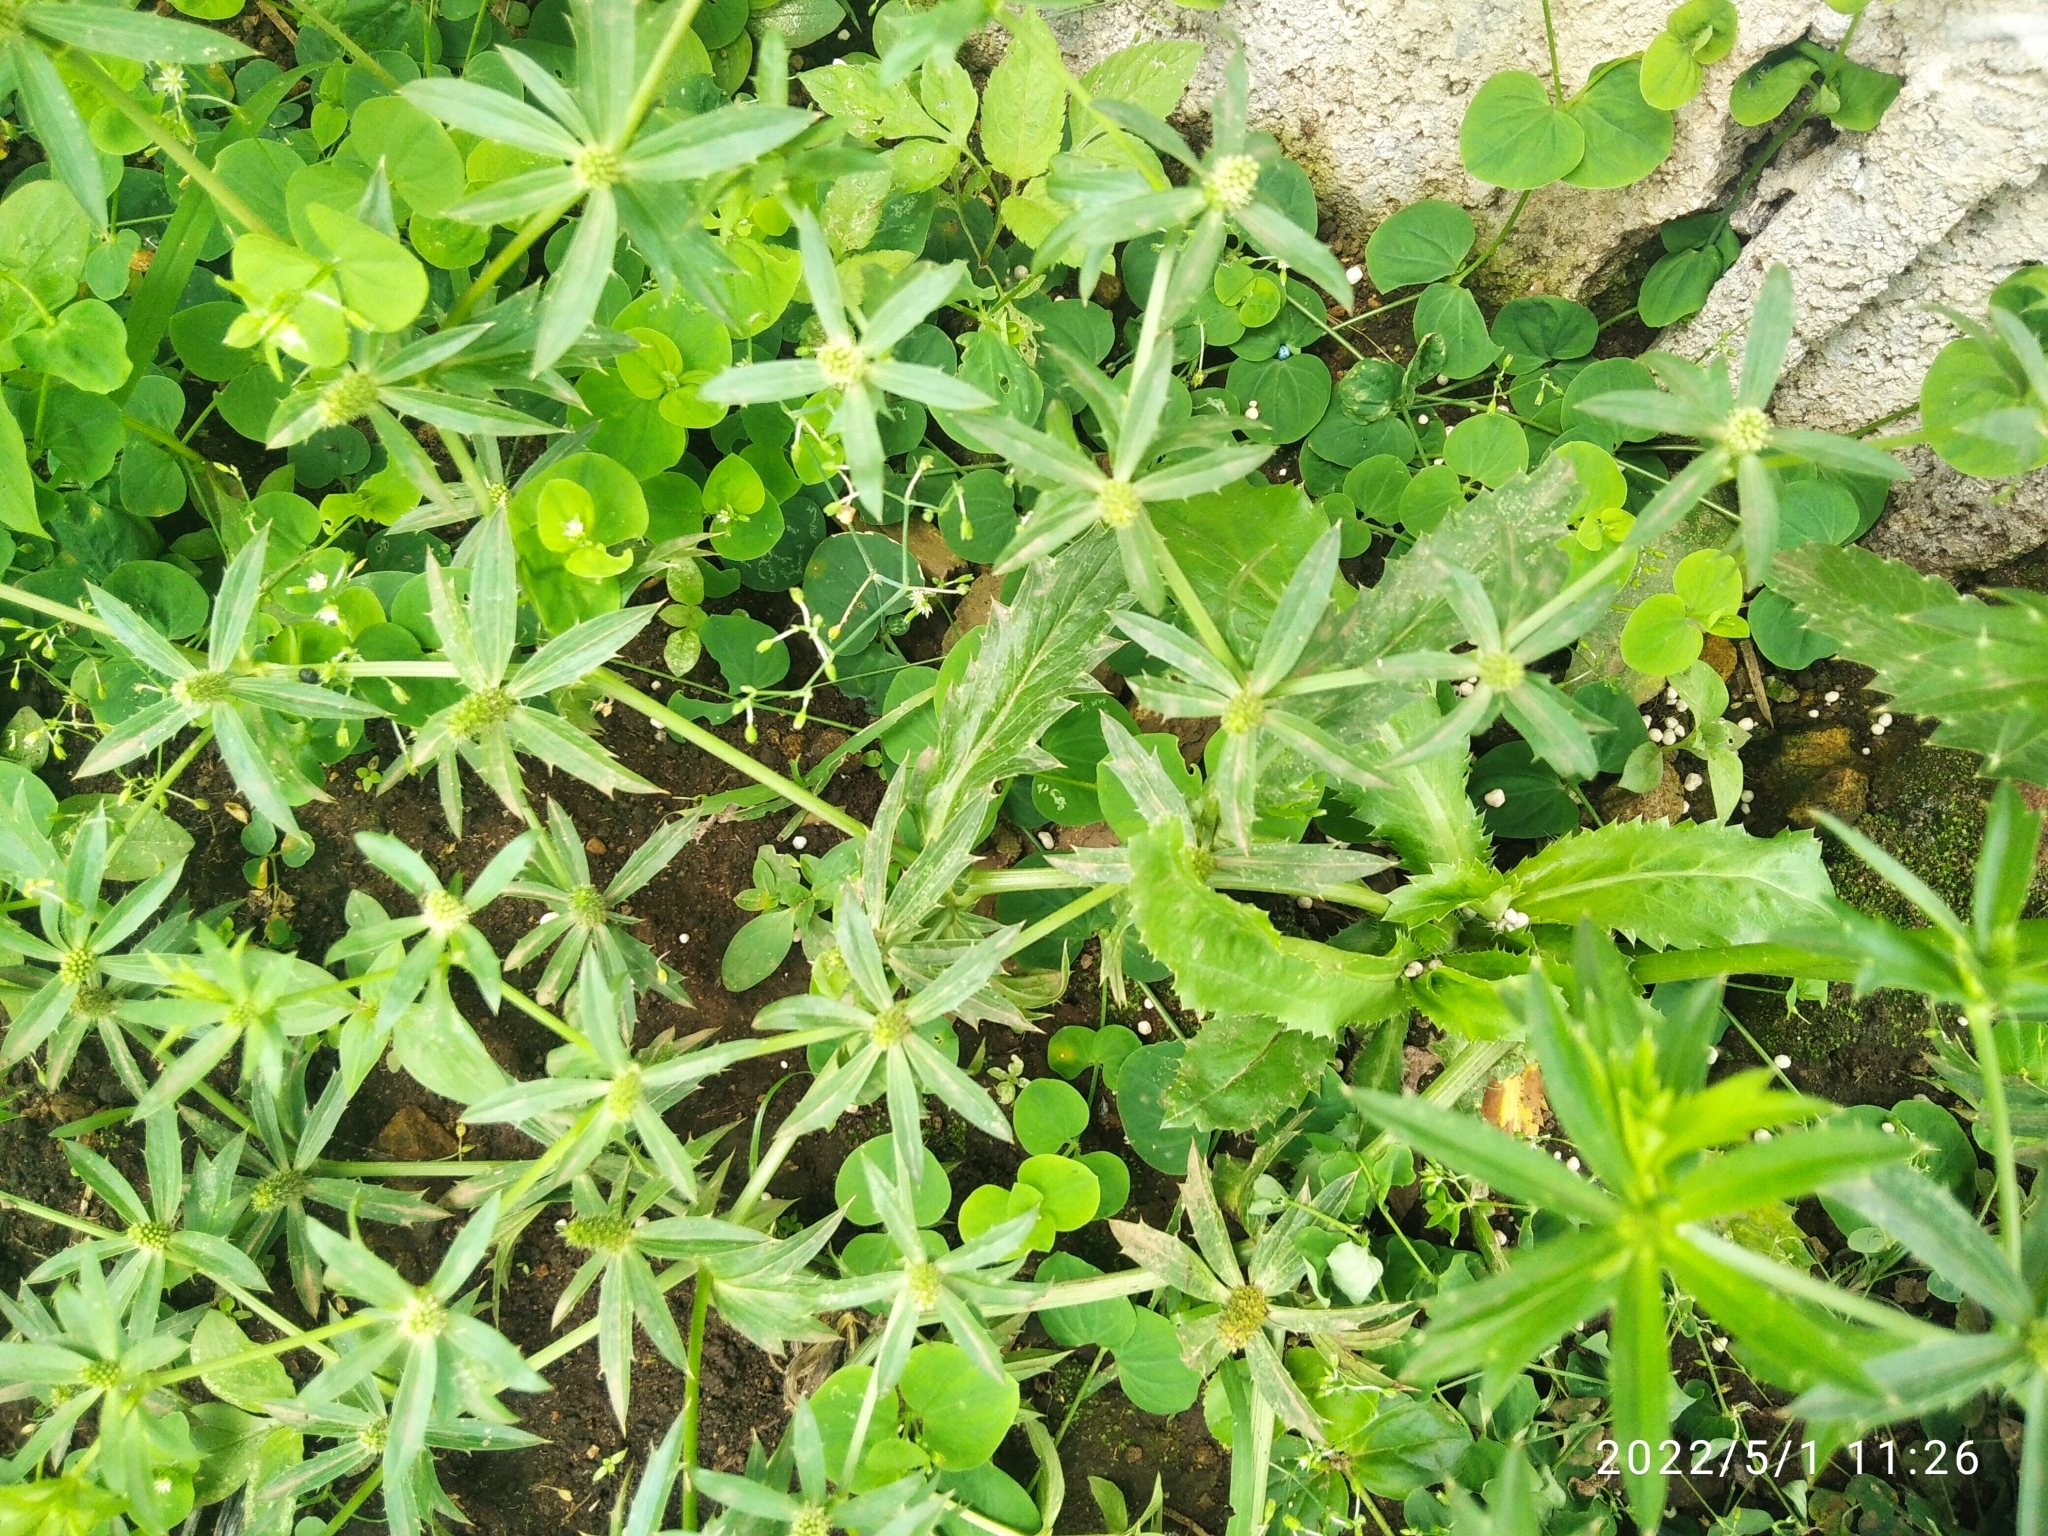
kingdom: Plantae
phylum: Tracheophyta
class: Magnoliopsida
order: Apiales
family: Apiaceae
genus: Eryngium
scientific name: Eryngium foetidum
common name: Fitweed
